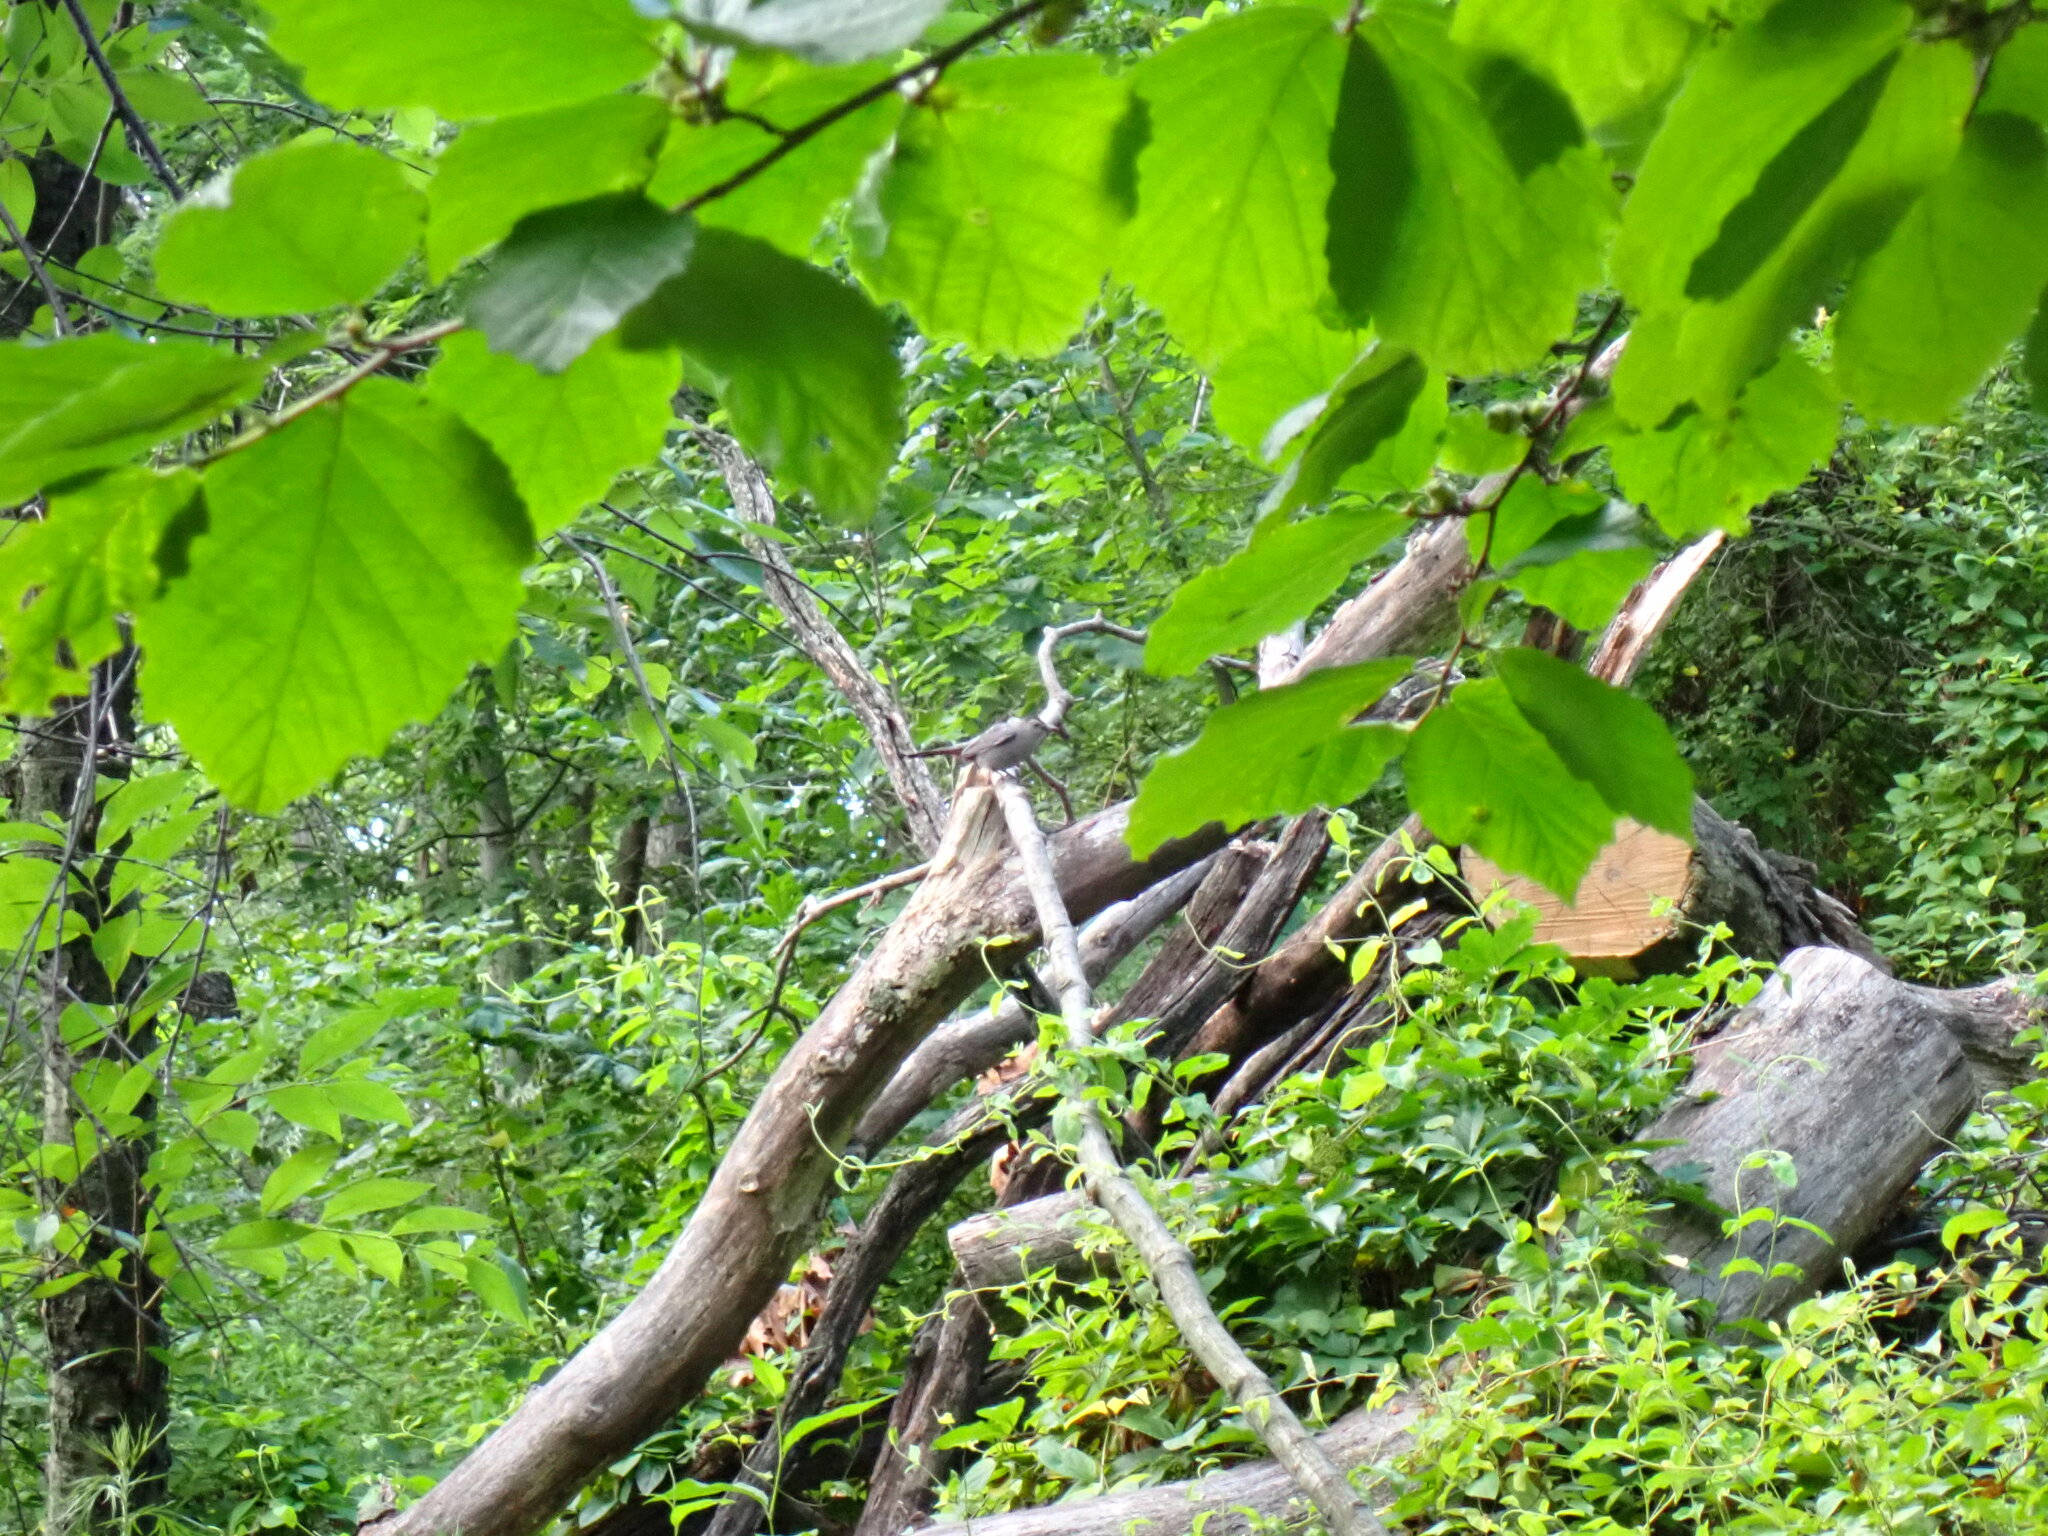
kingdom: Animalia
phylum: Chordata
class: Aves
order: Passeriformes
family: Mimidae
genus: Dumetella
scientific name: Dumetella carolinensis
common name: Gray catbird
